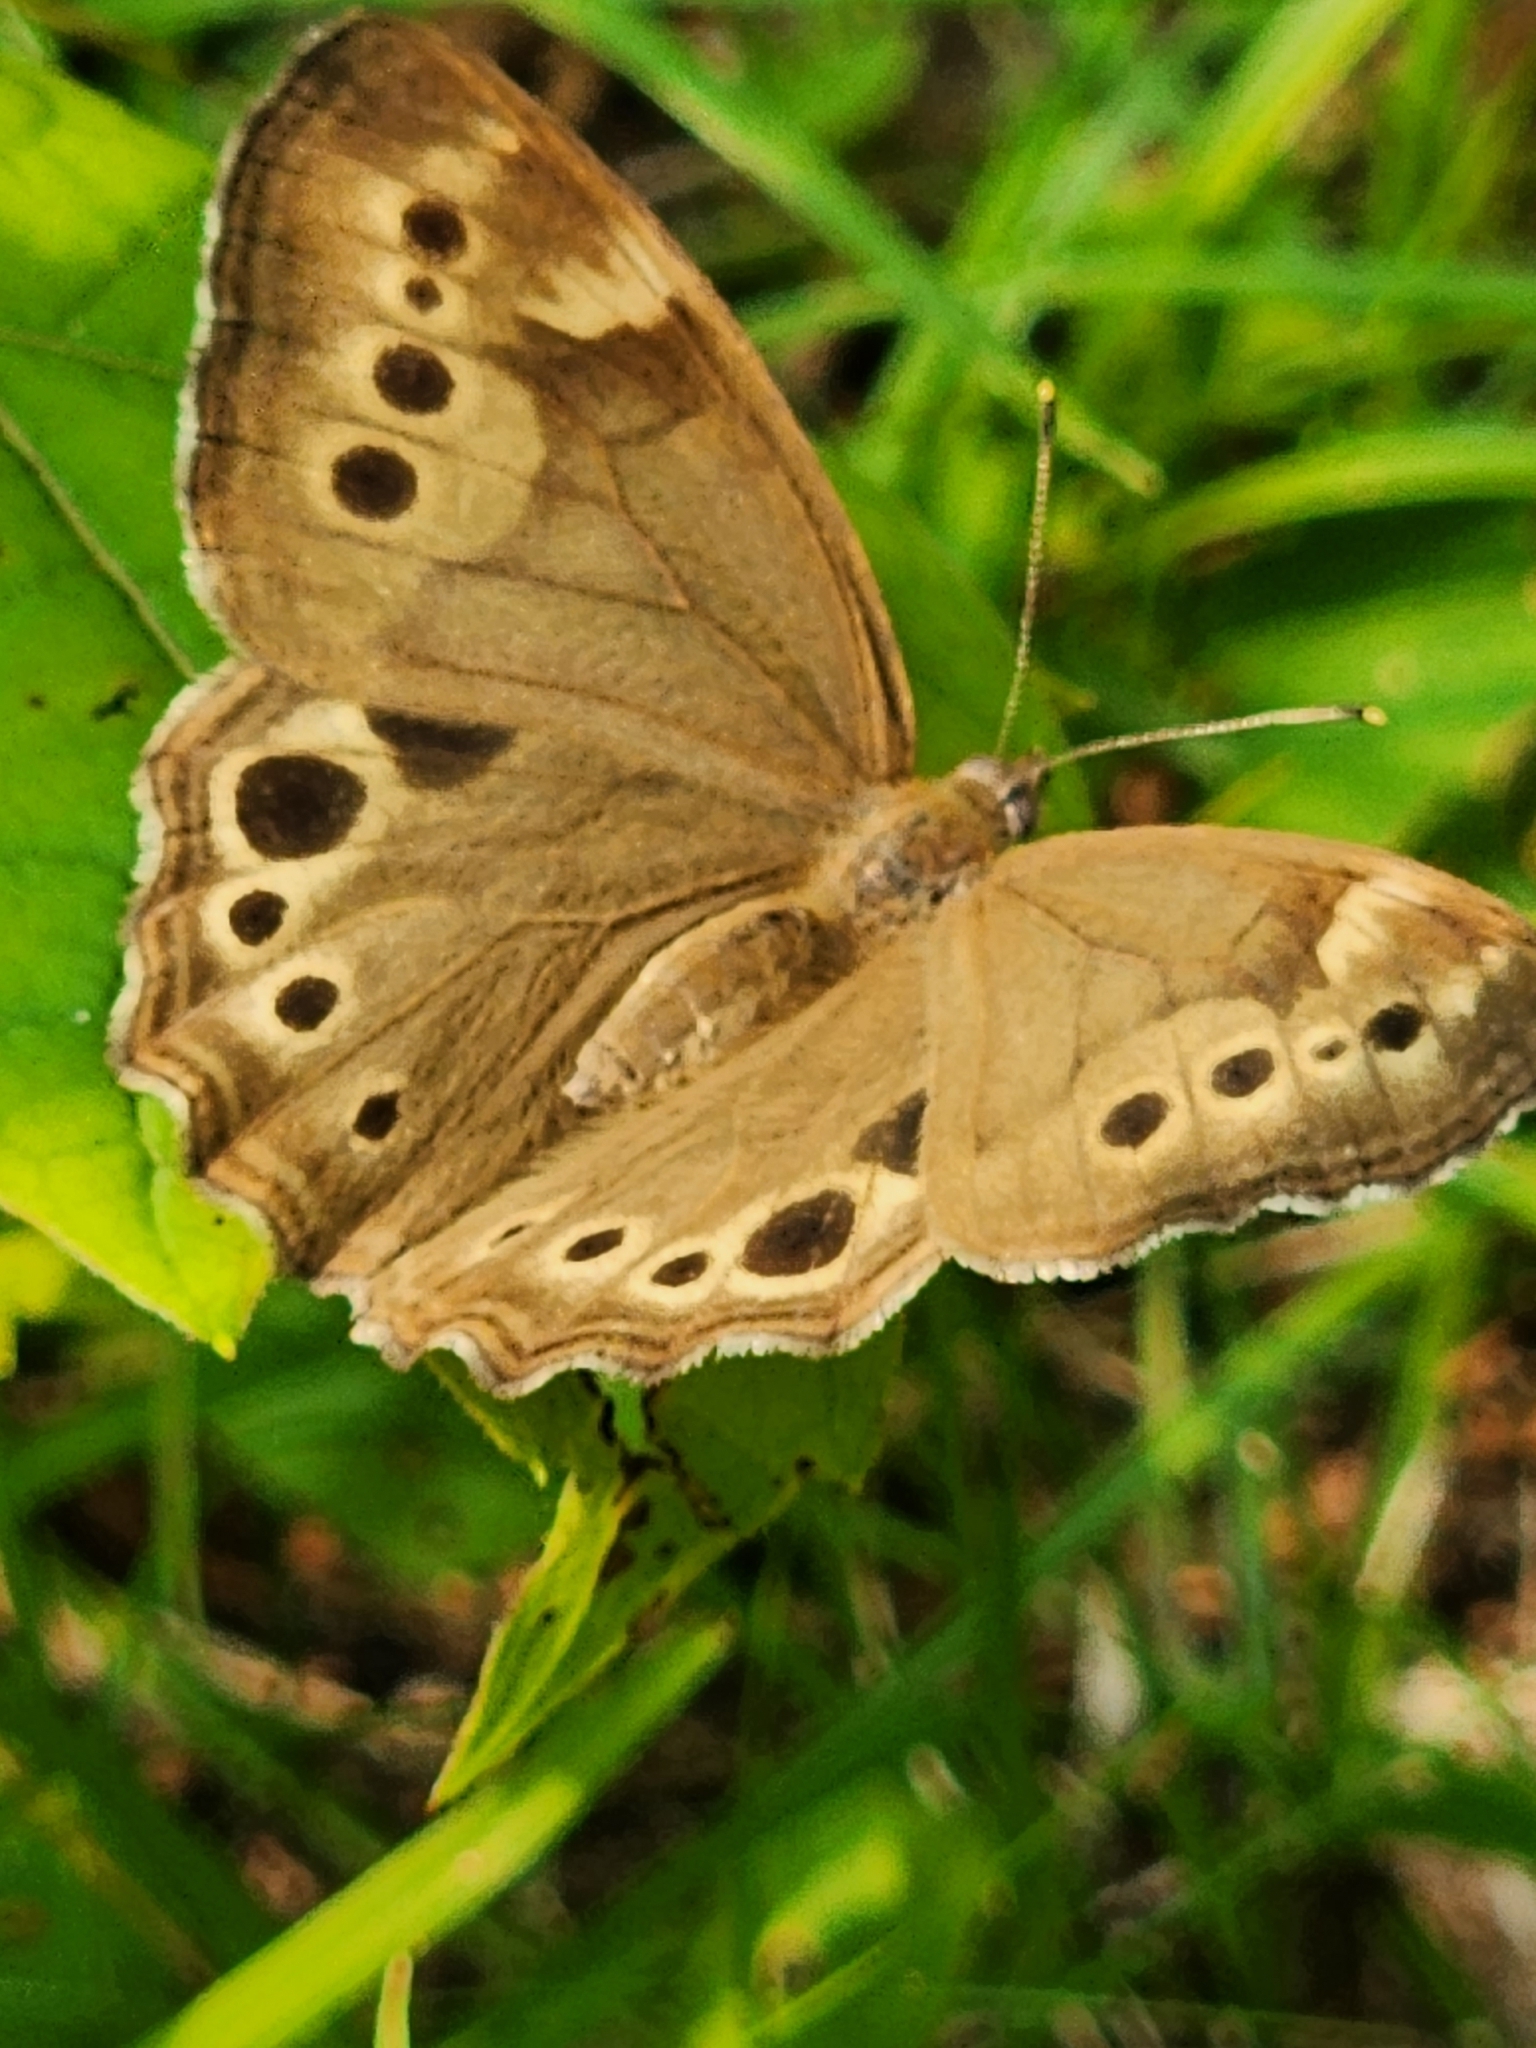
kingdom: Animalia
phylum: Arthropoda
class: Insecta
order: Lepidoptera
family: Nymphalidae
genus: Lethe
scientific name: Lethe anthedon
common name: Northern pearly-eye
